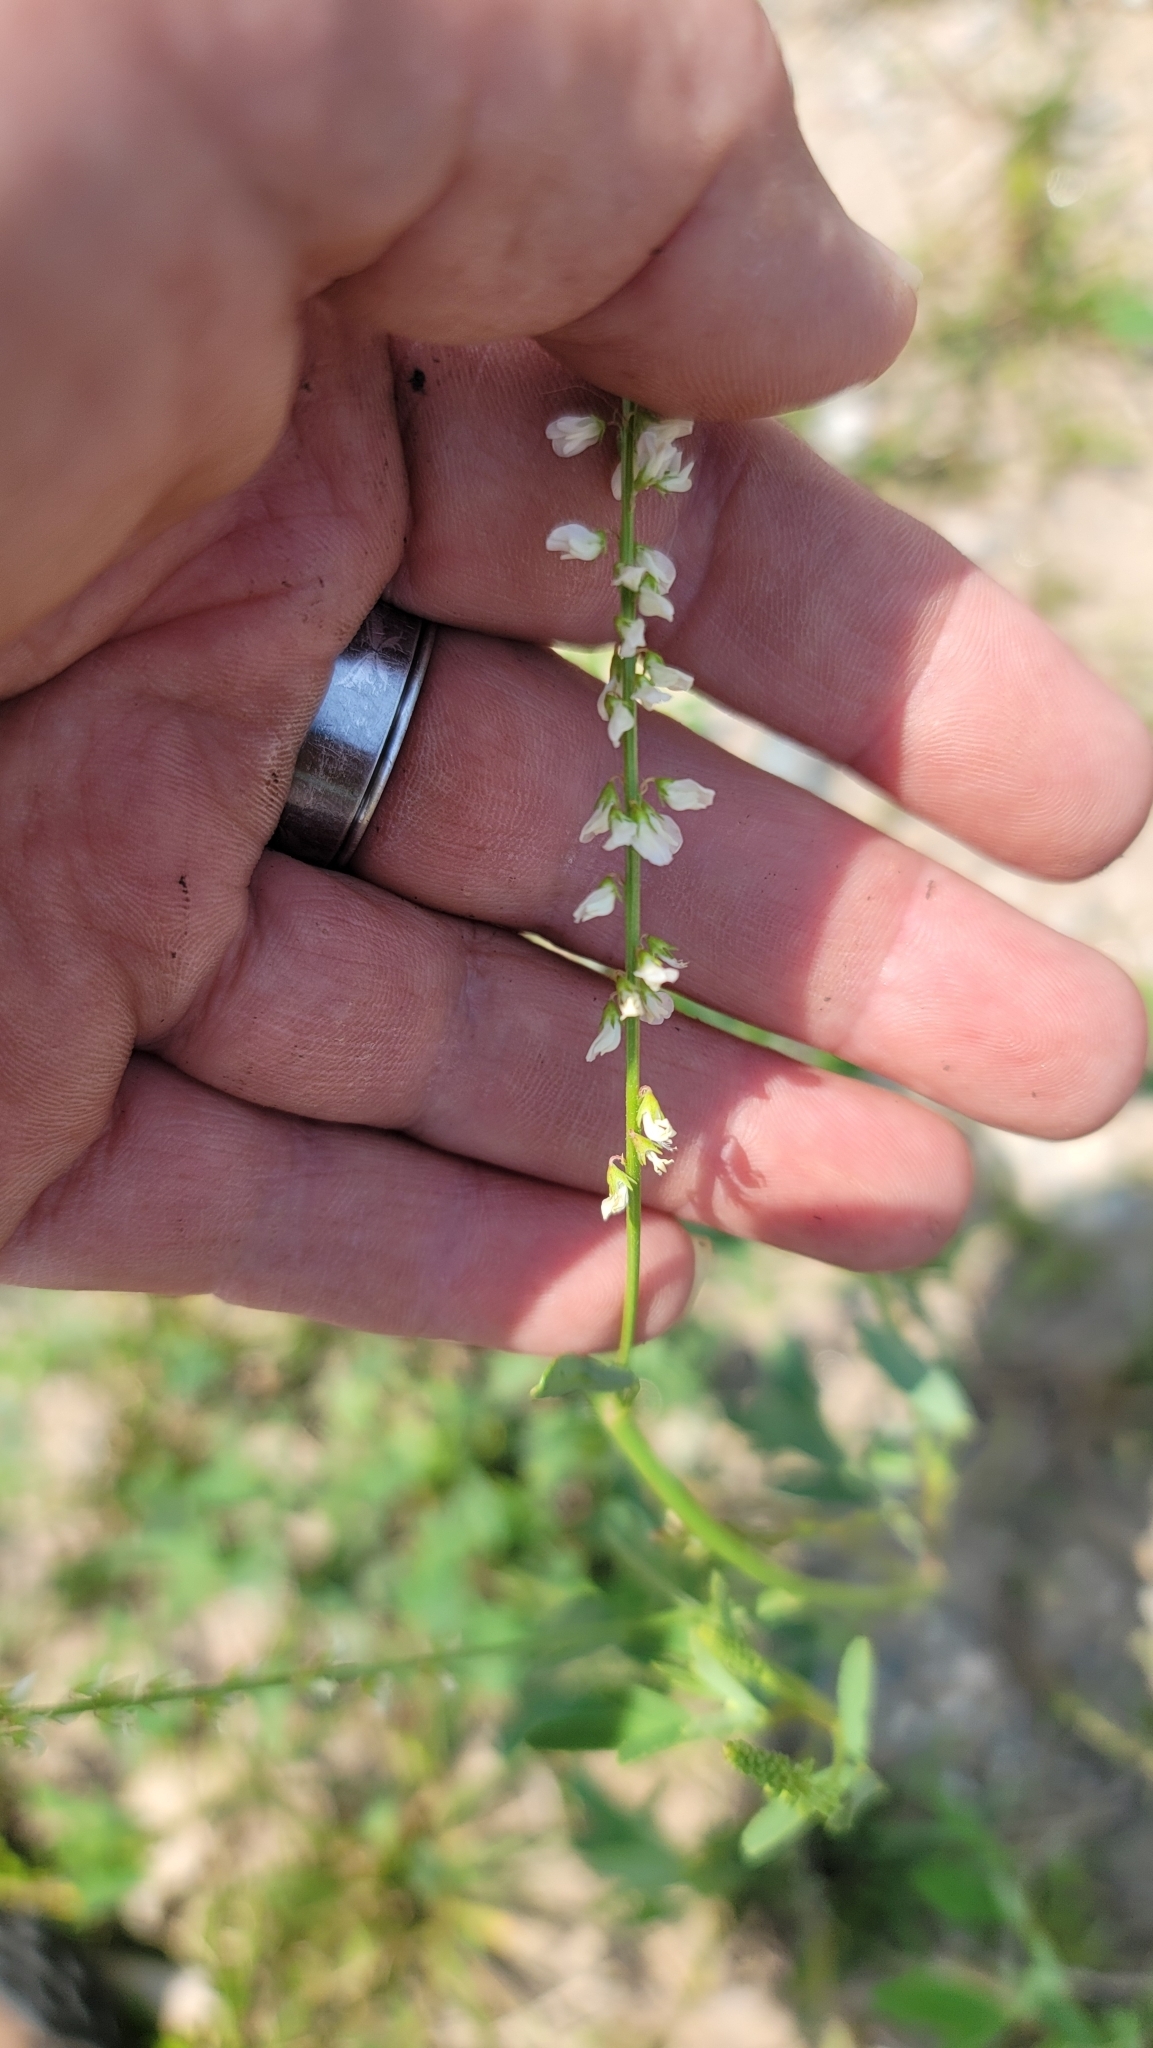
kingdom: Plantae
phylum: Tracheophyta
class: Magnoliopsida
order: Fabales
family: Fabaceae
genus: Melilotus
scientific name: Melilotus albus
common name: White melilot
